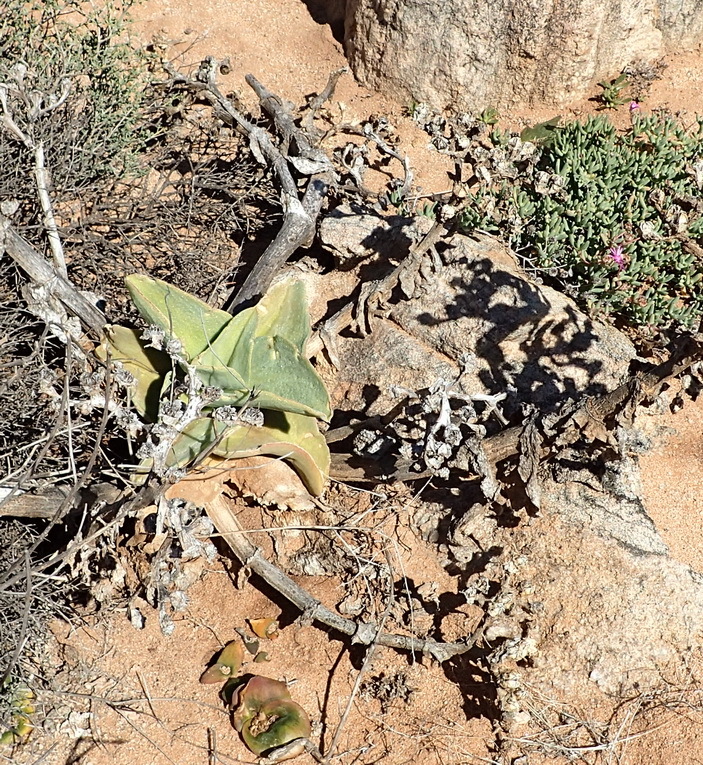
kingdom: Plantae
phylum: Tracheophyta
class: Magnoliopsida
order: Caryophyllales
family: Aizoaceae
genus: Mesembryanthemum
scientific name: Mesembryanthemum barklyi
